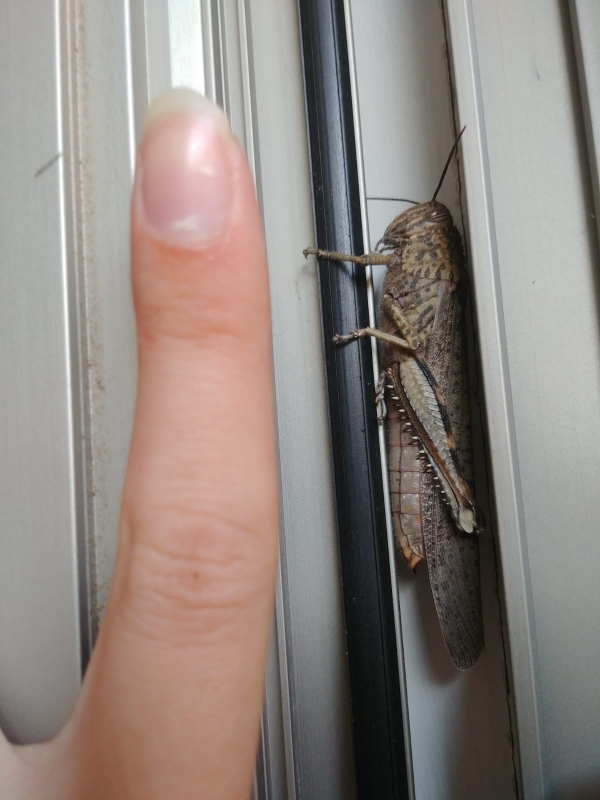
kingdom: Animalia
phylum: Arthropoda
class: Insecta
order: Orthoptera
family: Acrididae
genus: Anacridium
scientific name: Anacridium aegyptium
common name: Egyptian grasshopper
